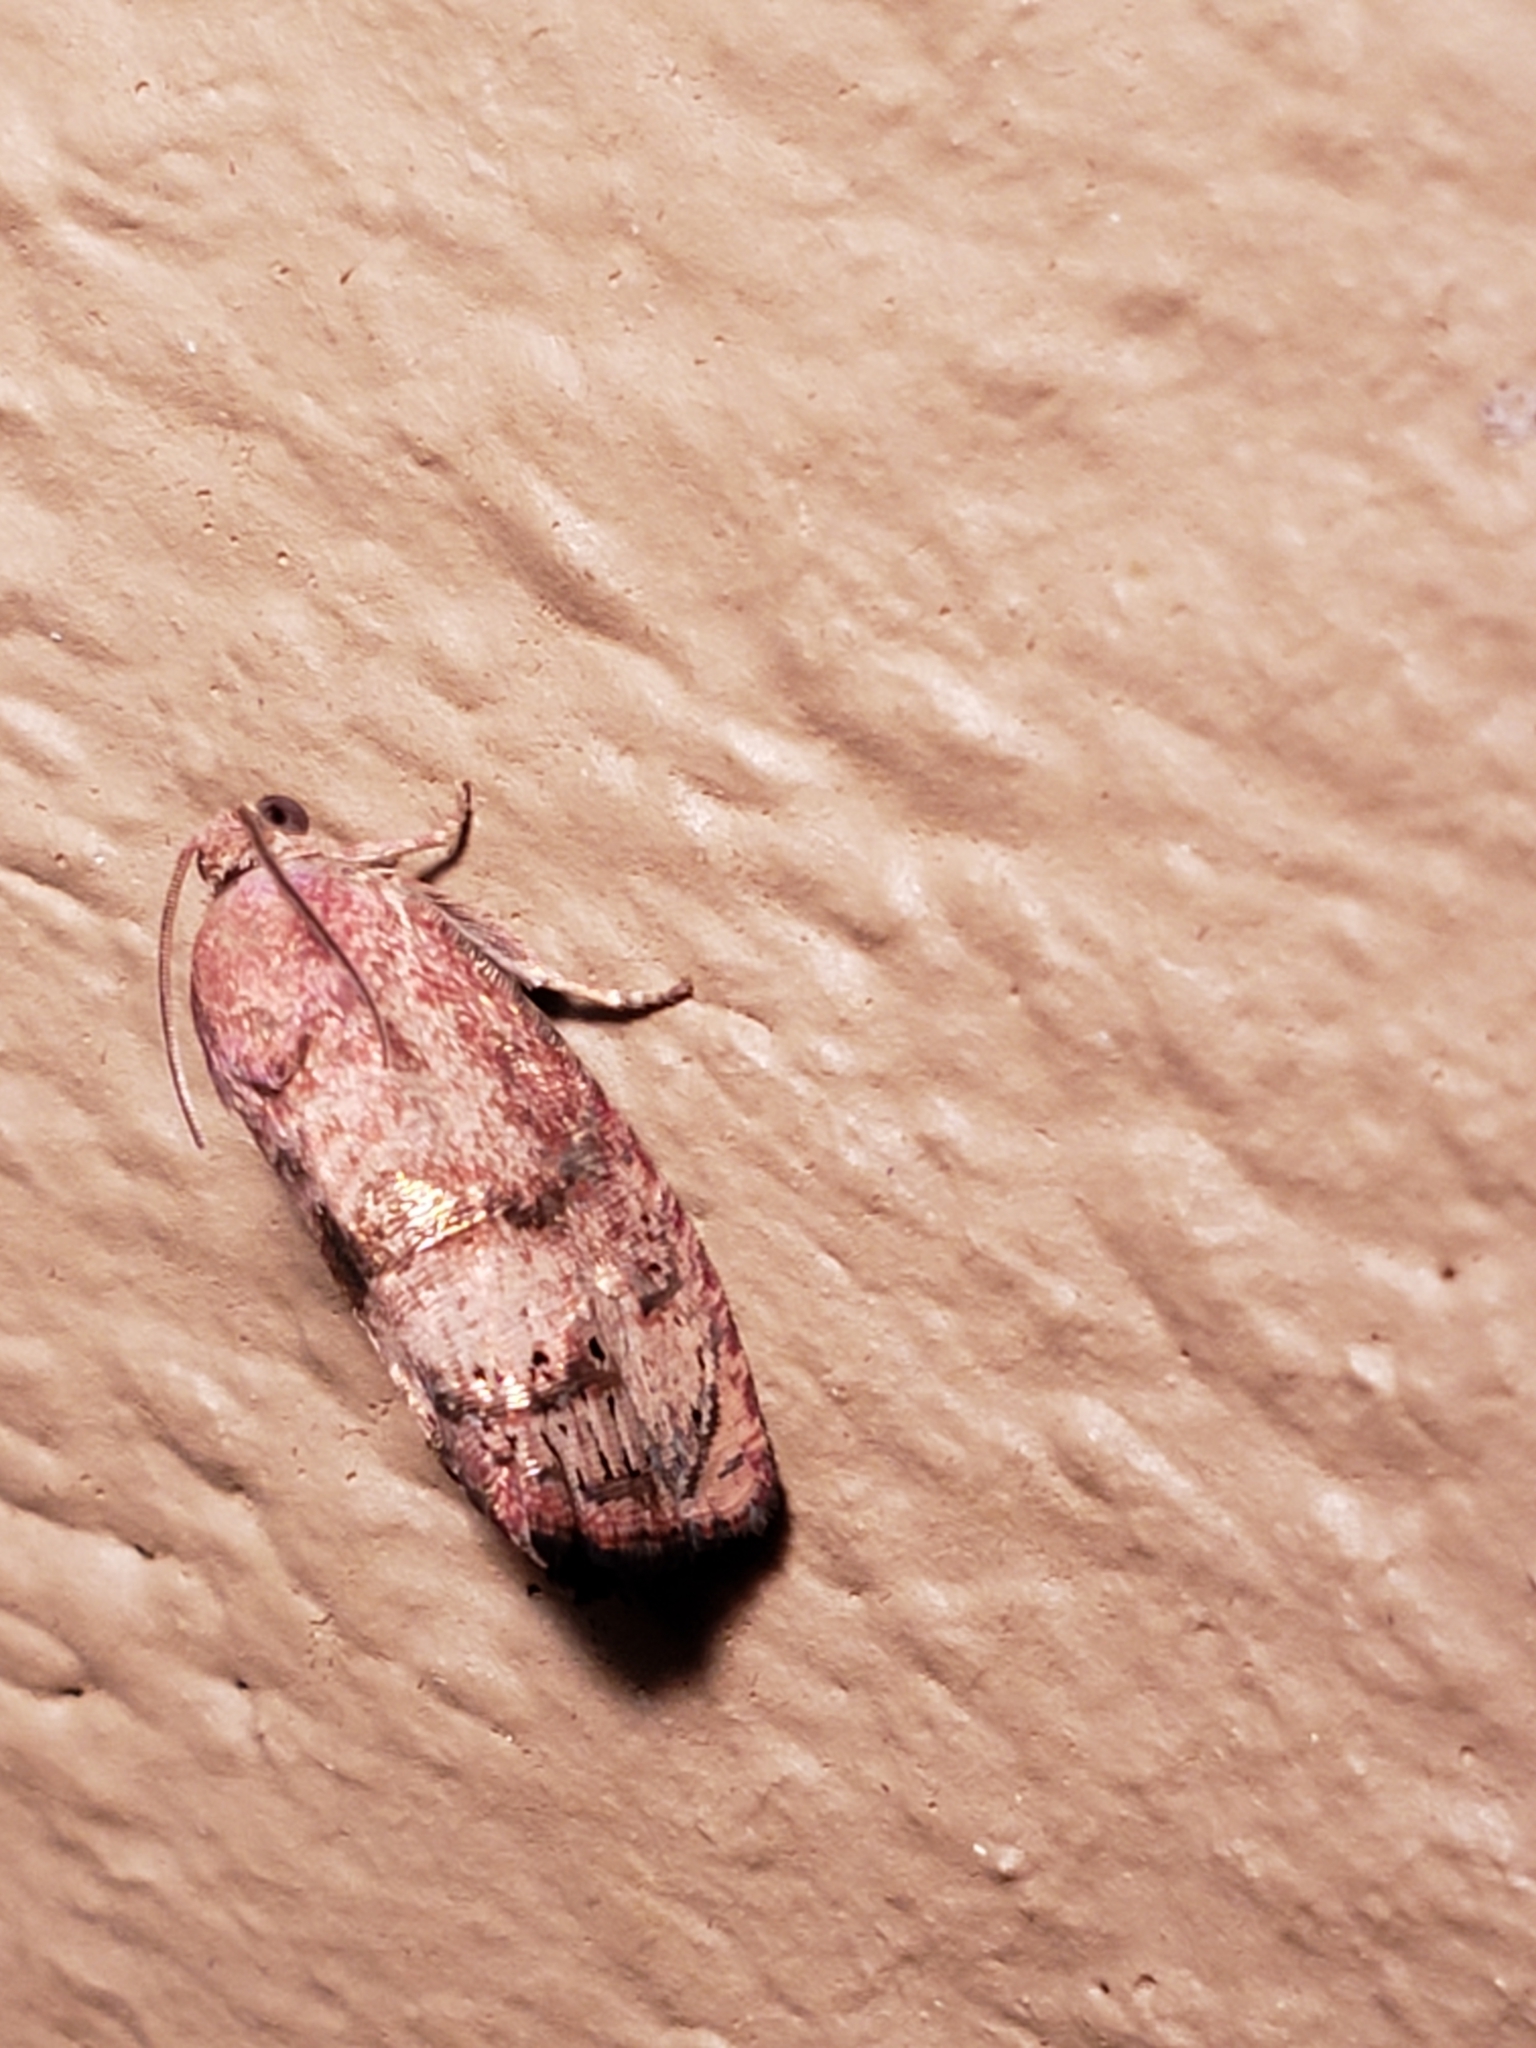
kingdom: Animalia
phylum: Arthropoda
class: Insecta
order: Lepidoptera
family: Tortricidae
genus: Cydia
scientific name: Cydia latiferreana
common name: Filbertworm moth
